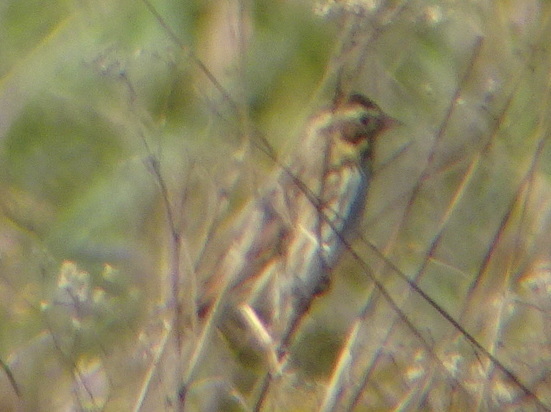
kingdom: Animalia
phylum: Chordata
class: Aves
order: Passeriformes
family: Passerellidae
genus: Passerculus
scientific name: Passerculus sandwichensis
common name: Savannah sparrow
